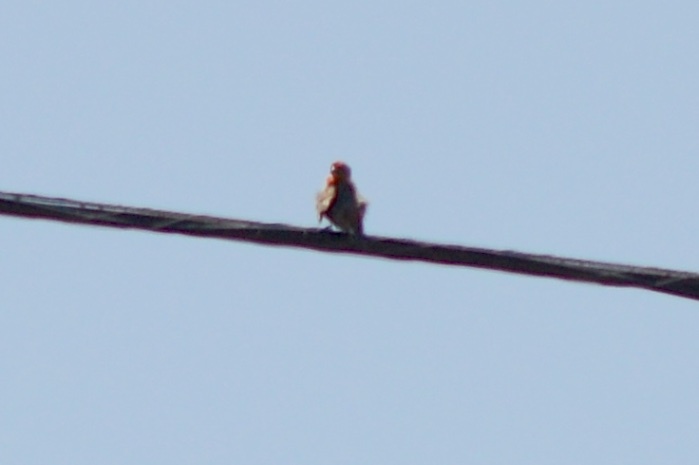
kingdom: Animalia
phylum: Chordata
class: Aves
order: Passeriformes
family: Fringillidae
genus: Haemorhous
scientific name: Haemorhous mexicanus
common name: House finch
